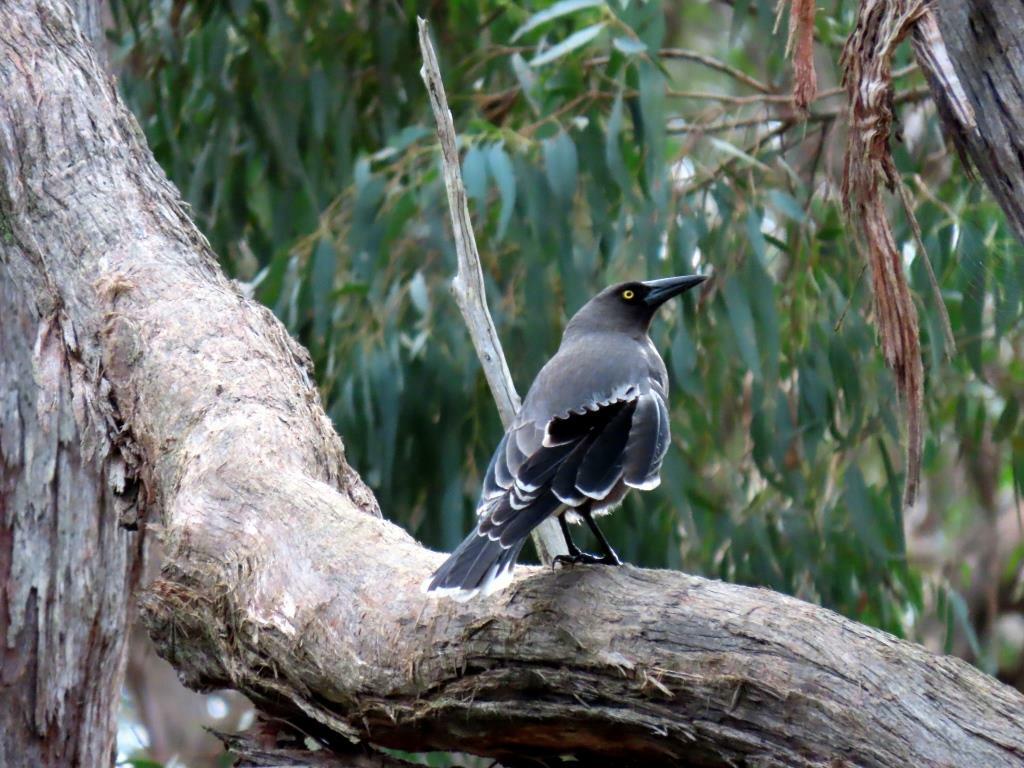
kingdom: Animalia
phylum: Chordata
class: Aves
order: Passeriformes
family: Cracticidae
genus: Strepera
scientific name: Strepera versicolor
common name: Grey currawong
